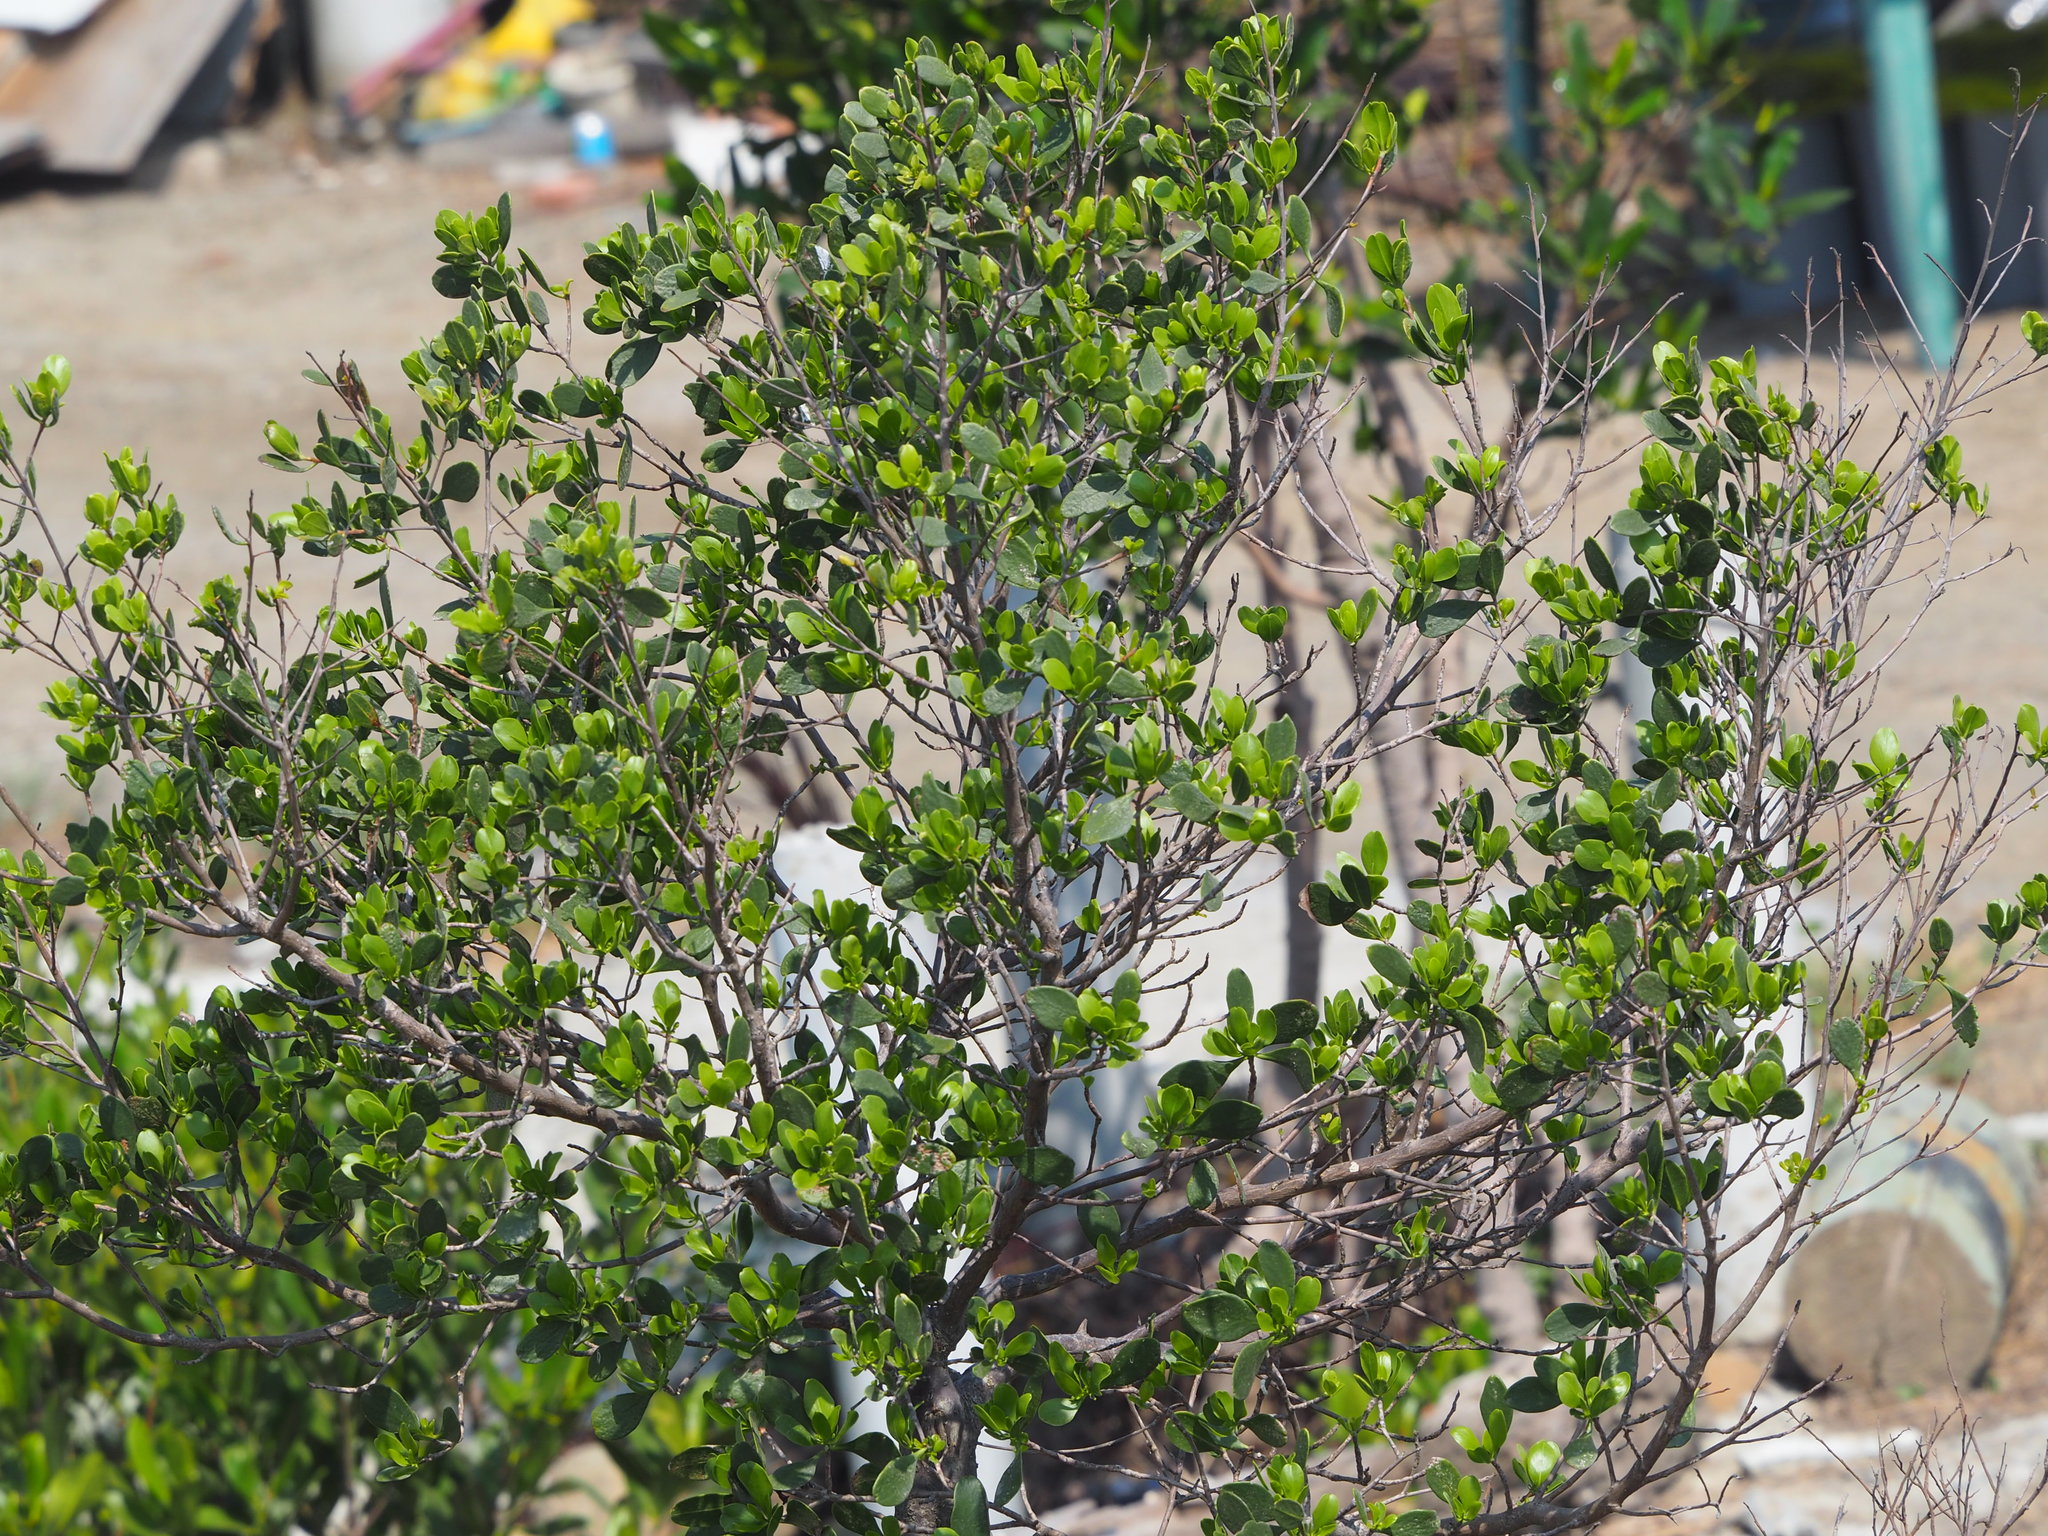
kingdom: Plantae
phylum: Tracheophyta
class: Magnoliopsida
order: Myrtales
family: Combretaceae
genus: Lumnitzera
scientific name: Lumnitzera racemosa
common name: White-flowered black mangrove
